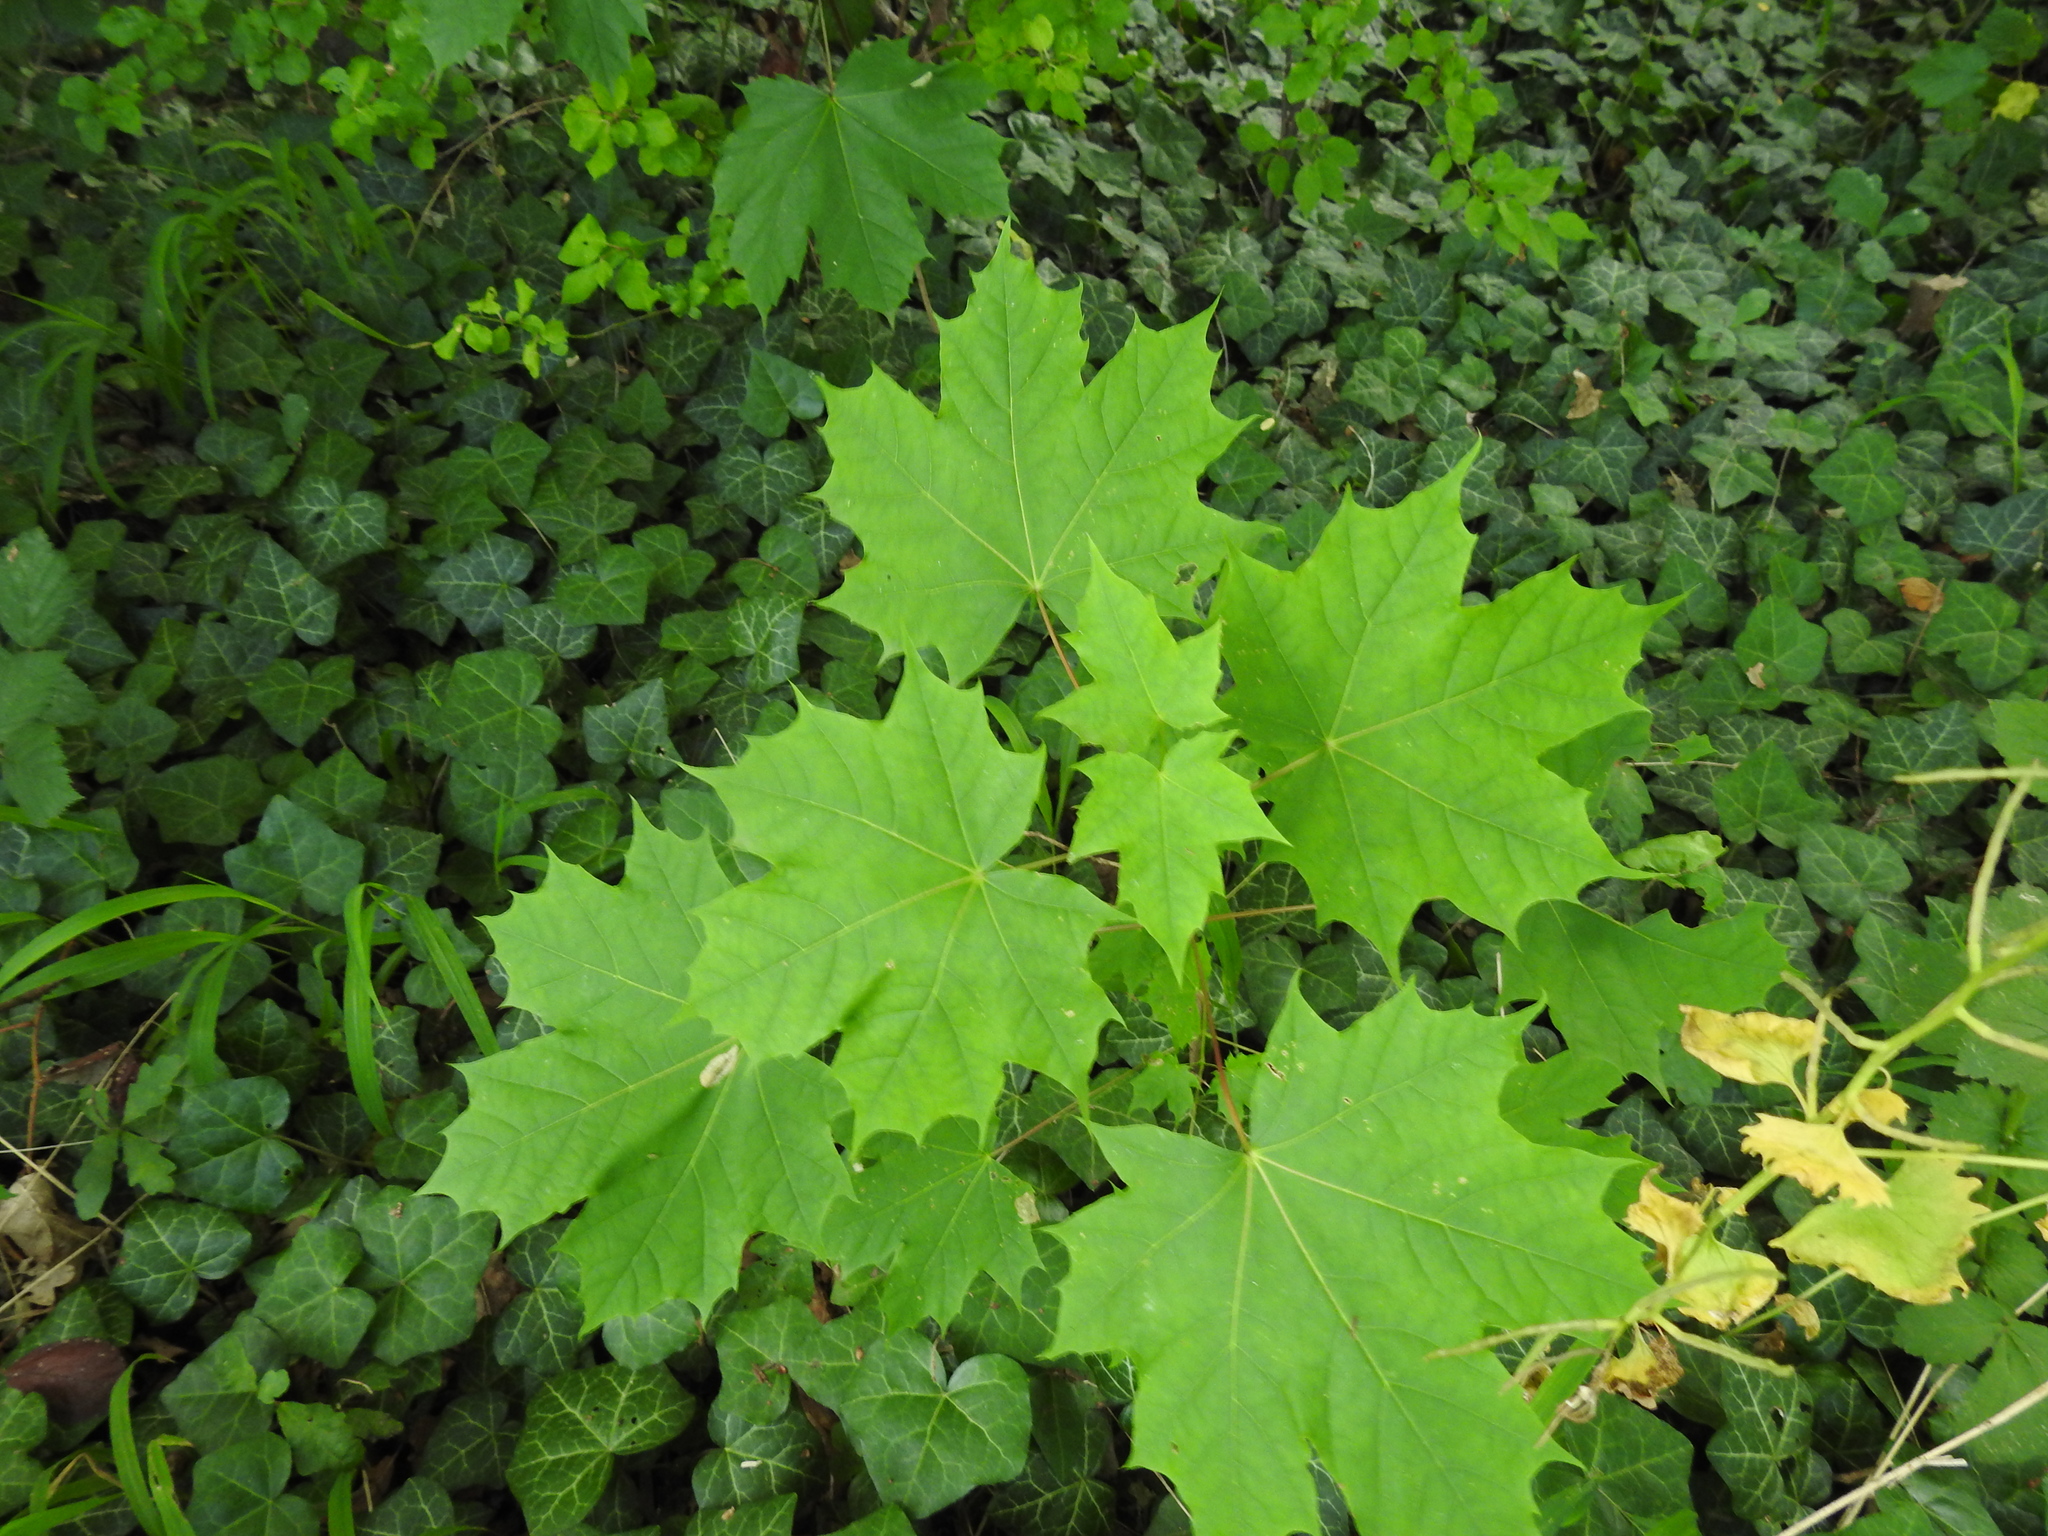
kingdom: Plantae
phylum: Tracheophyta
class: Magnoliopsida
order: Sapindales
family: Sapindaceae
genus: Acer
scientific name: Acer platanoides
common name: Norway maple
